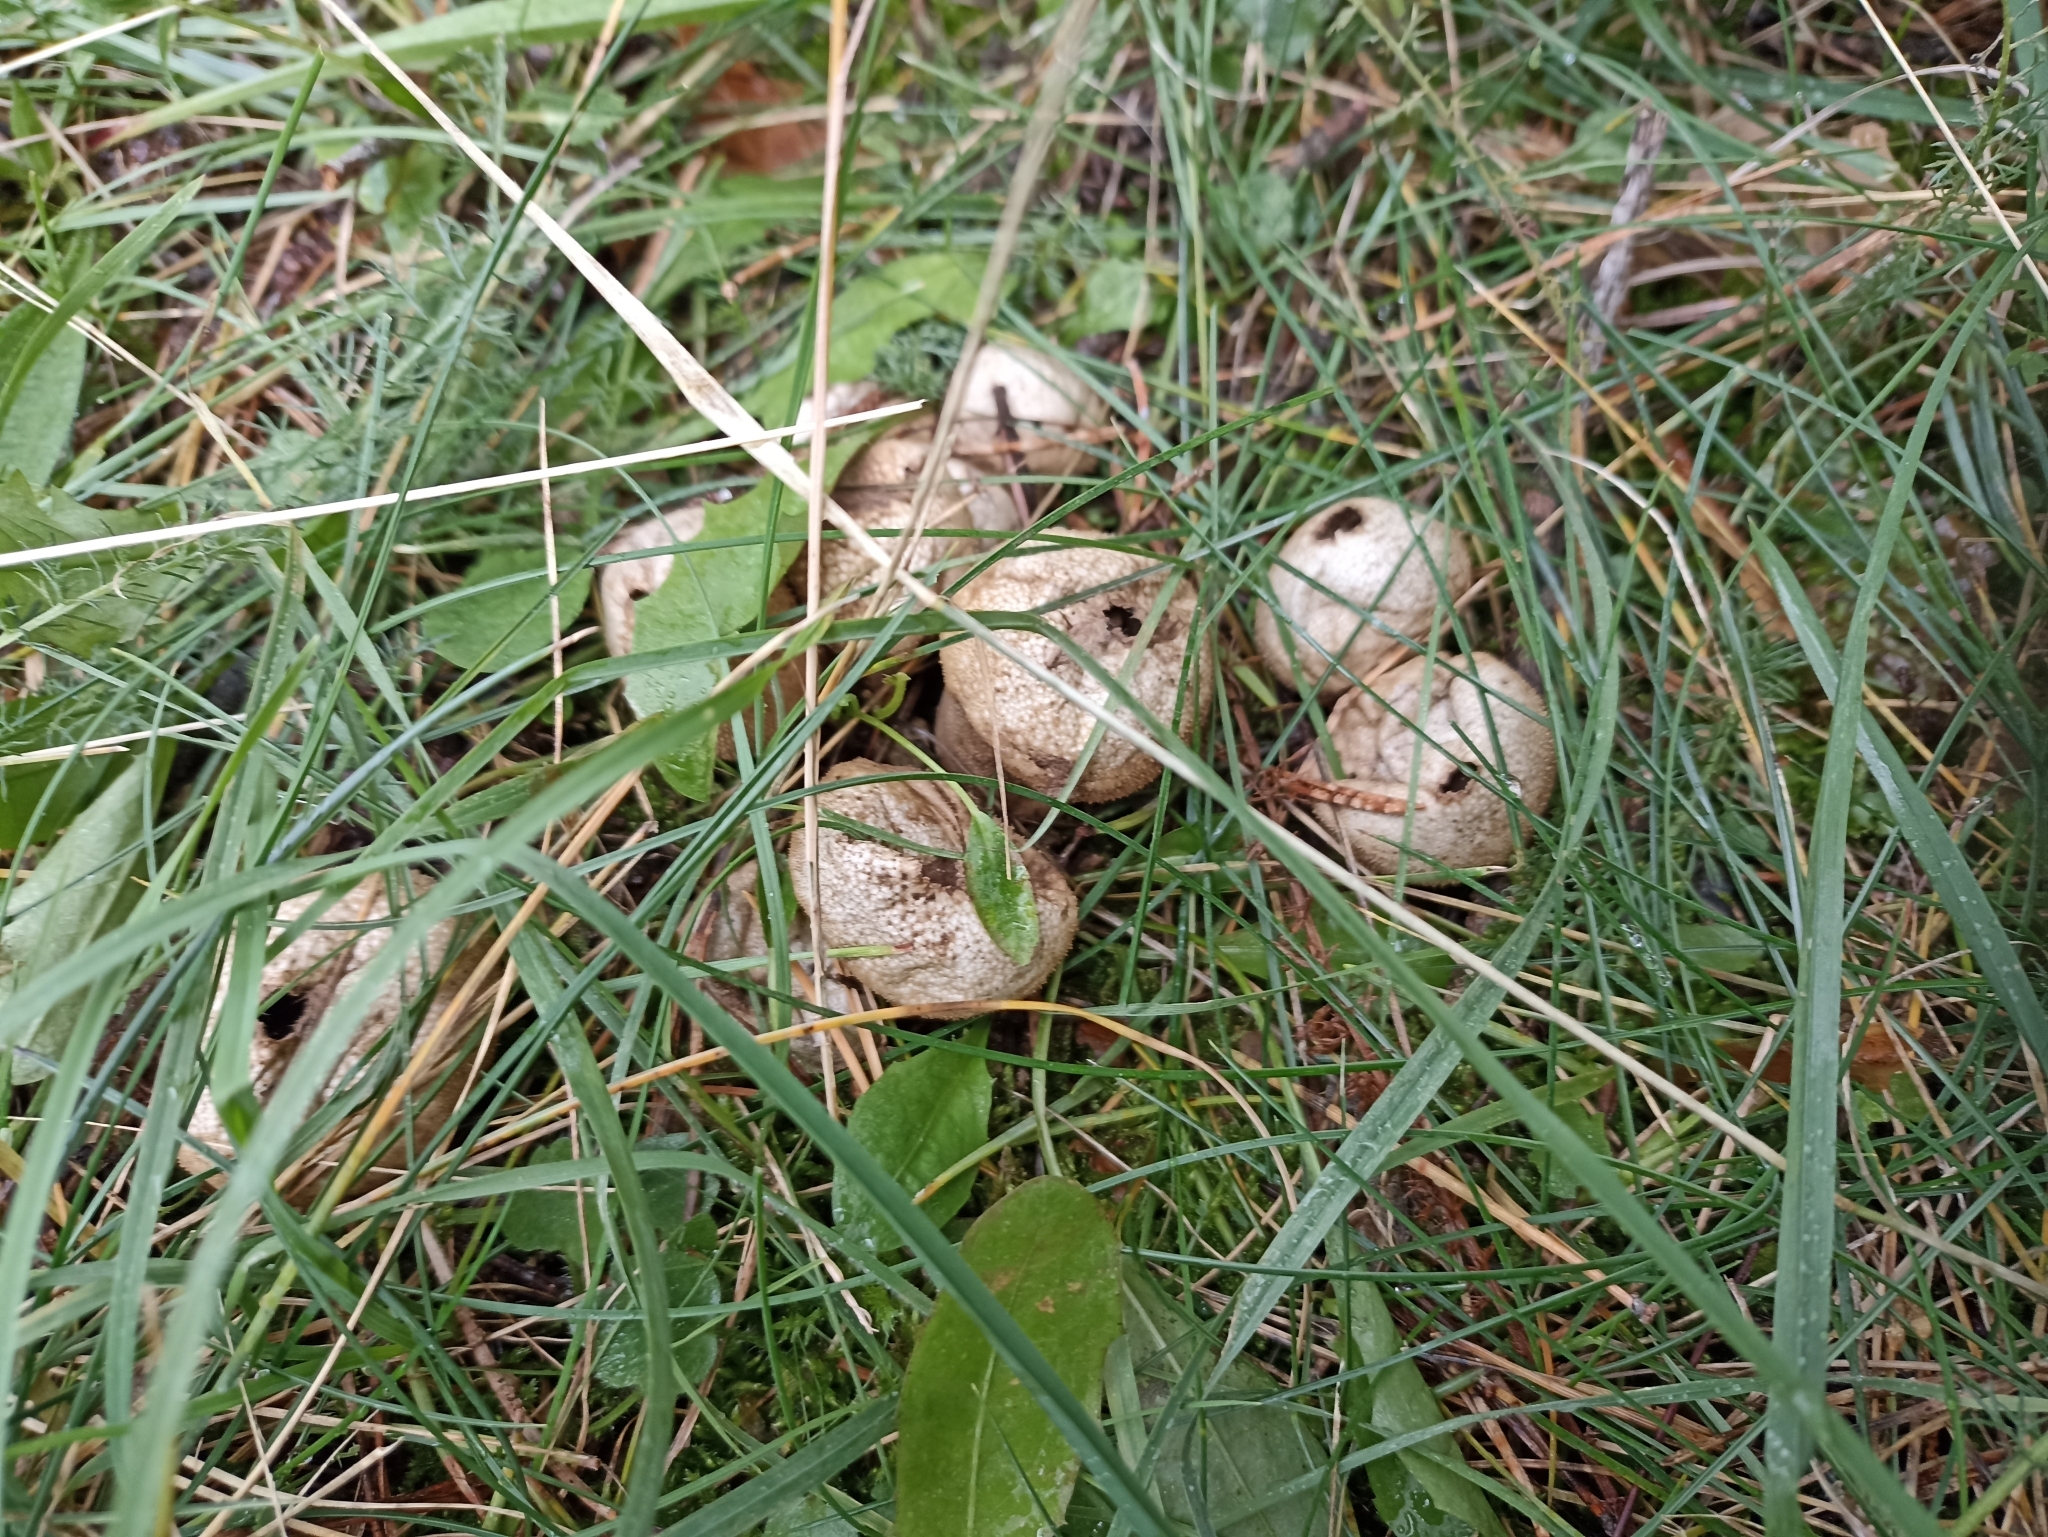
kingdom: Fungi
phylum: Basidiomycota
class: Agaricomycetes
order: Agaricales
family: Lycoperdaceae
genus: Lycoperdon
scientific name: Lycoperdon perlatum
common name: Common puffball
